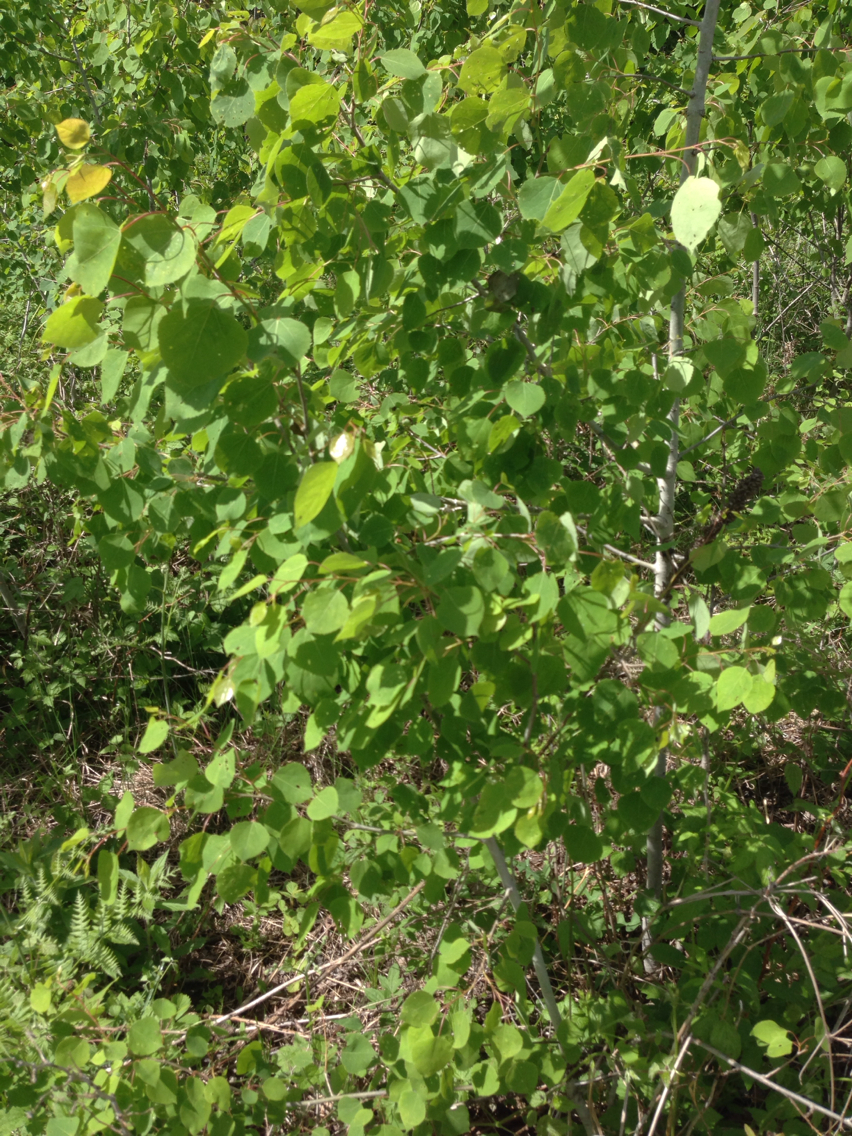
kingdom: Plantae
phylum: Tracheophyta
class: Magnoliopsida
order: Malpighiales
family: Salicaceae
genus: Populus
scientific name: Populus tremuloides
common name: Quaking aspen
